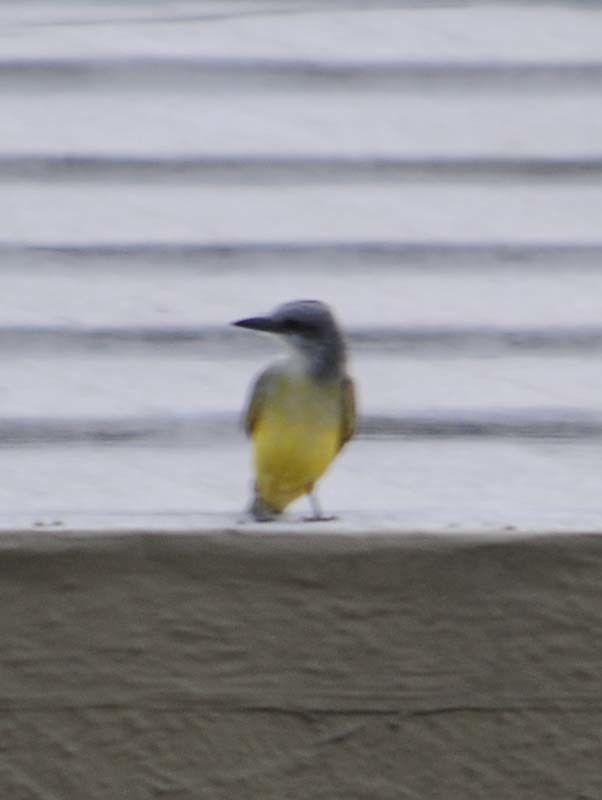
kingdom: Animalia
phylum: Chordata
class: Aves
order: Passeriformes
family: Tyrannidae
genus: Tyrannus
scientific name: Tyrannus melancholicus
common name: Tropical kingbird
